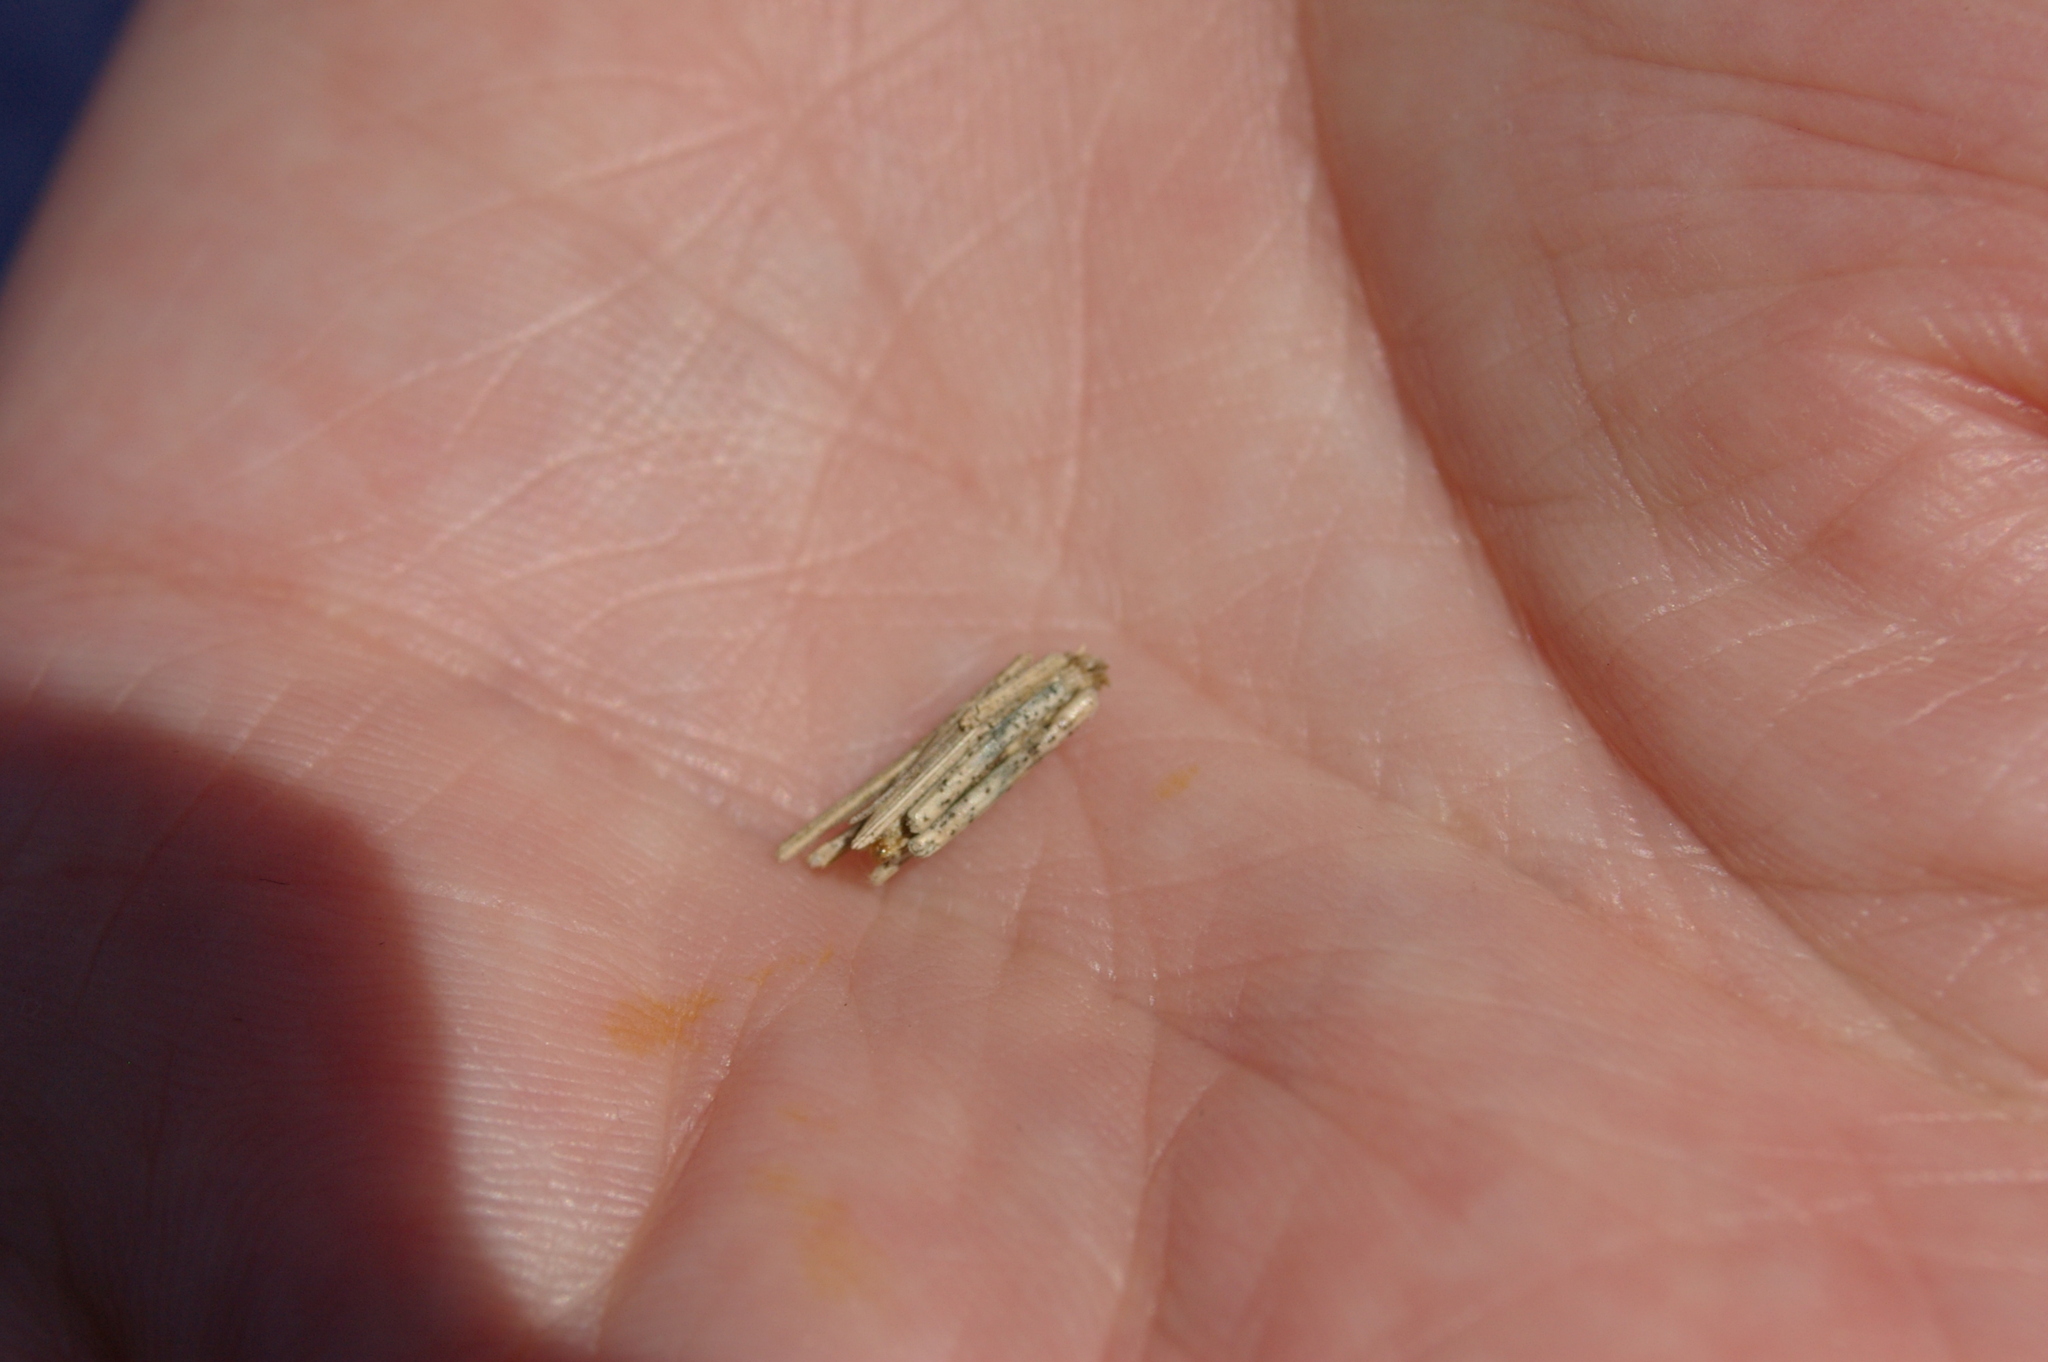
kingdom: Animalia
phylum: Arthropoda
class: Insecta
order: Lepidoptera
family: Psychidae
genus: Psyche
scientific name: Psyche casta
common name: Common sweep
